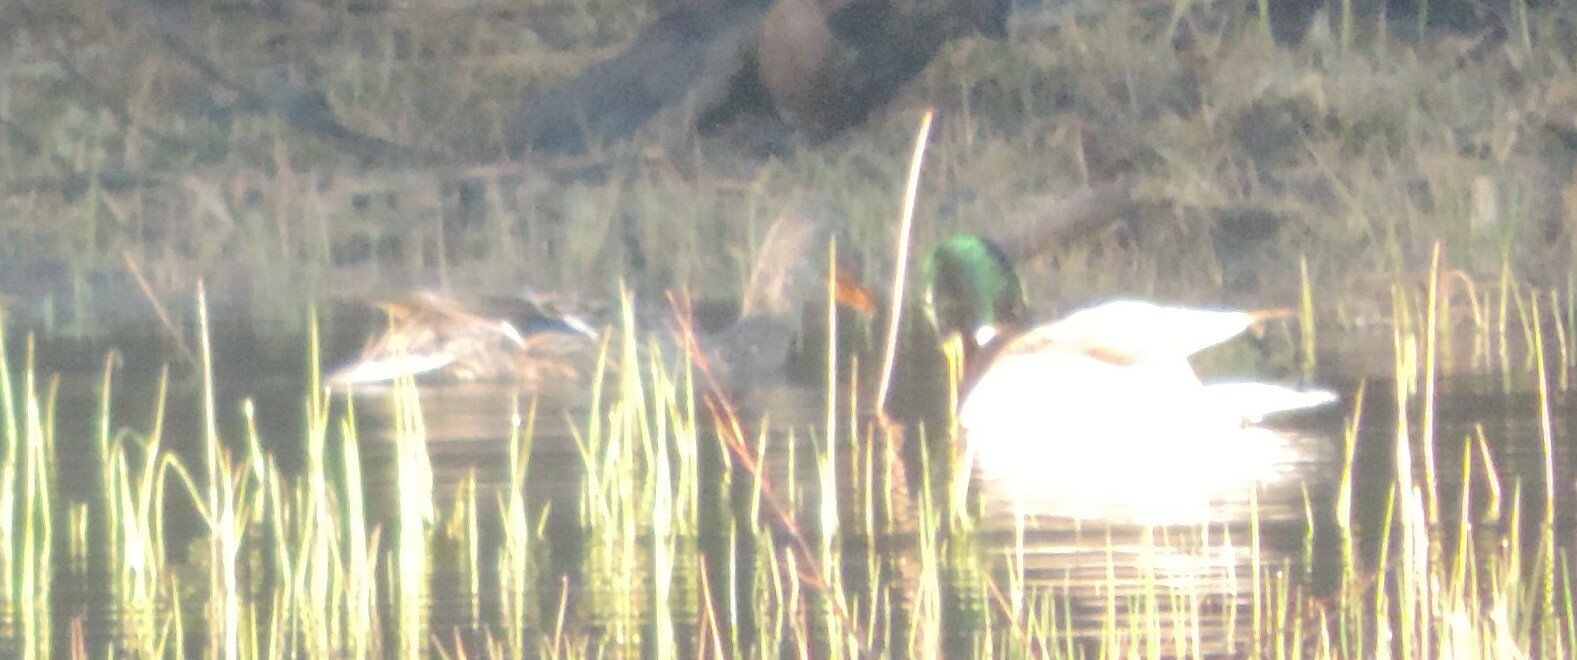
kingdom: Animalia
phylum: Chordata
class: Aves
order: Anseriformes
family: Anatidae
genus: Anas
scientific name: Anas platyrhynchos
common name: Mallard
